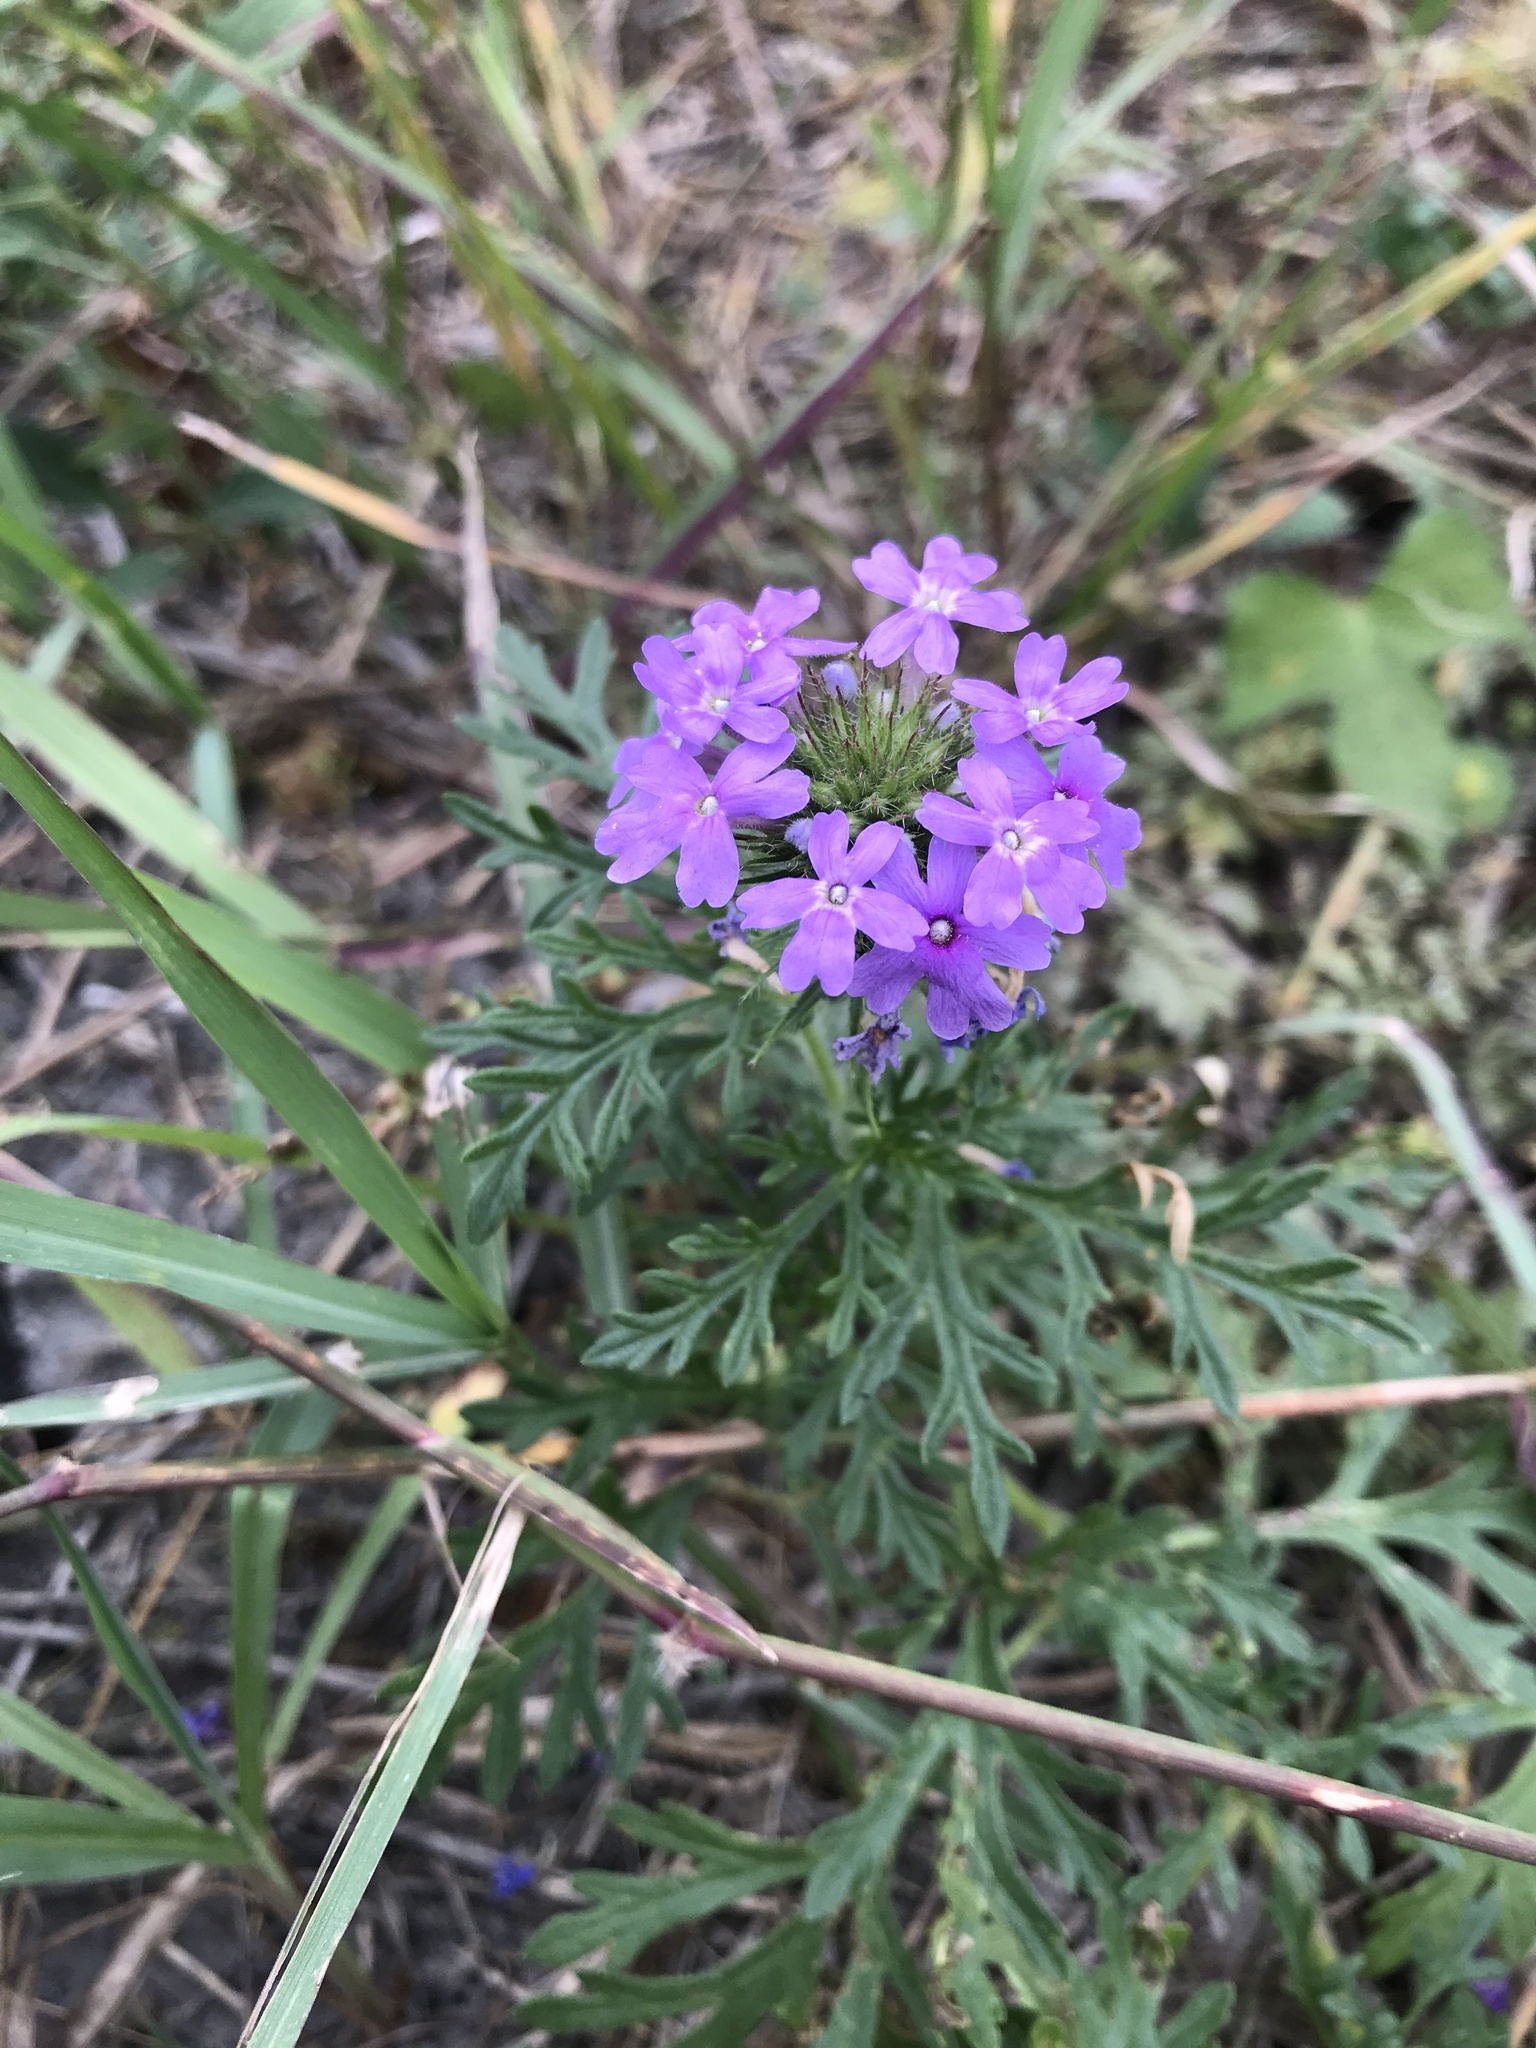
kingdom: Plantae
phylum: Tracheophyta
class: Magnoliopsida
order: Lamiales
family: Verbenaceae
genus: Verbena
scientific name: Verbena bipinnatifida
